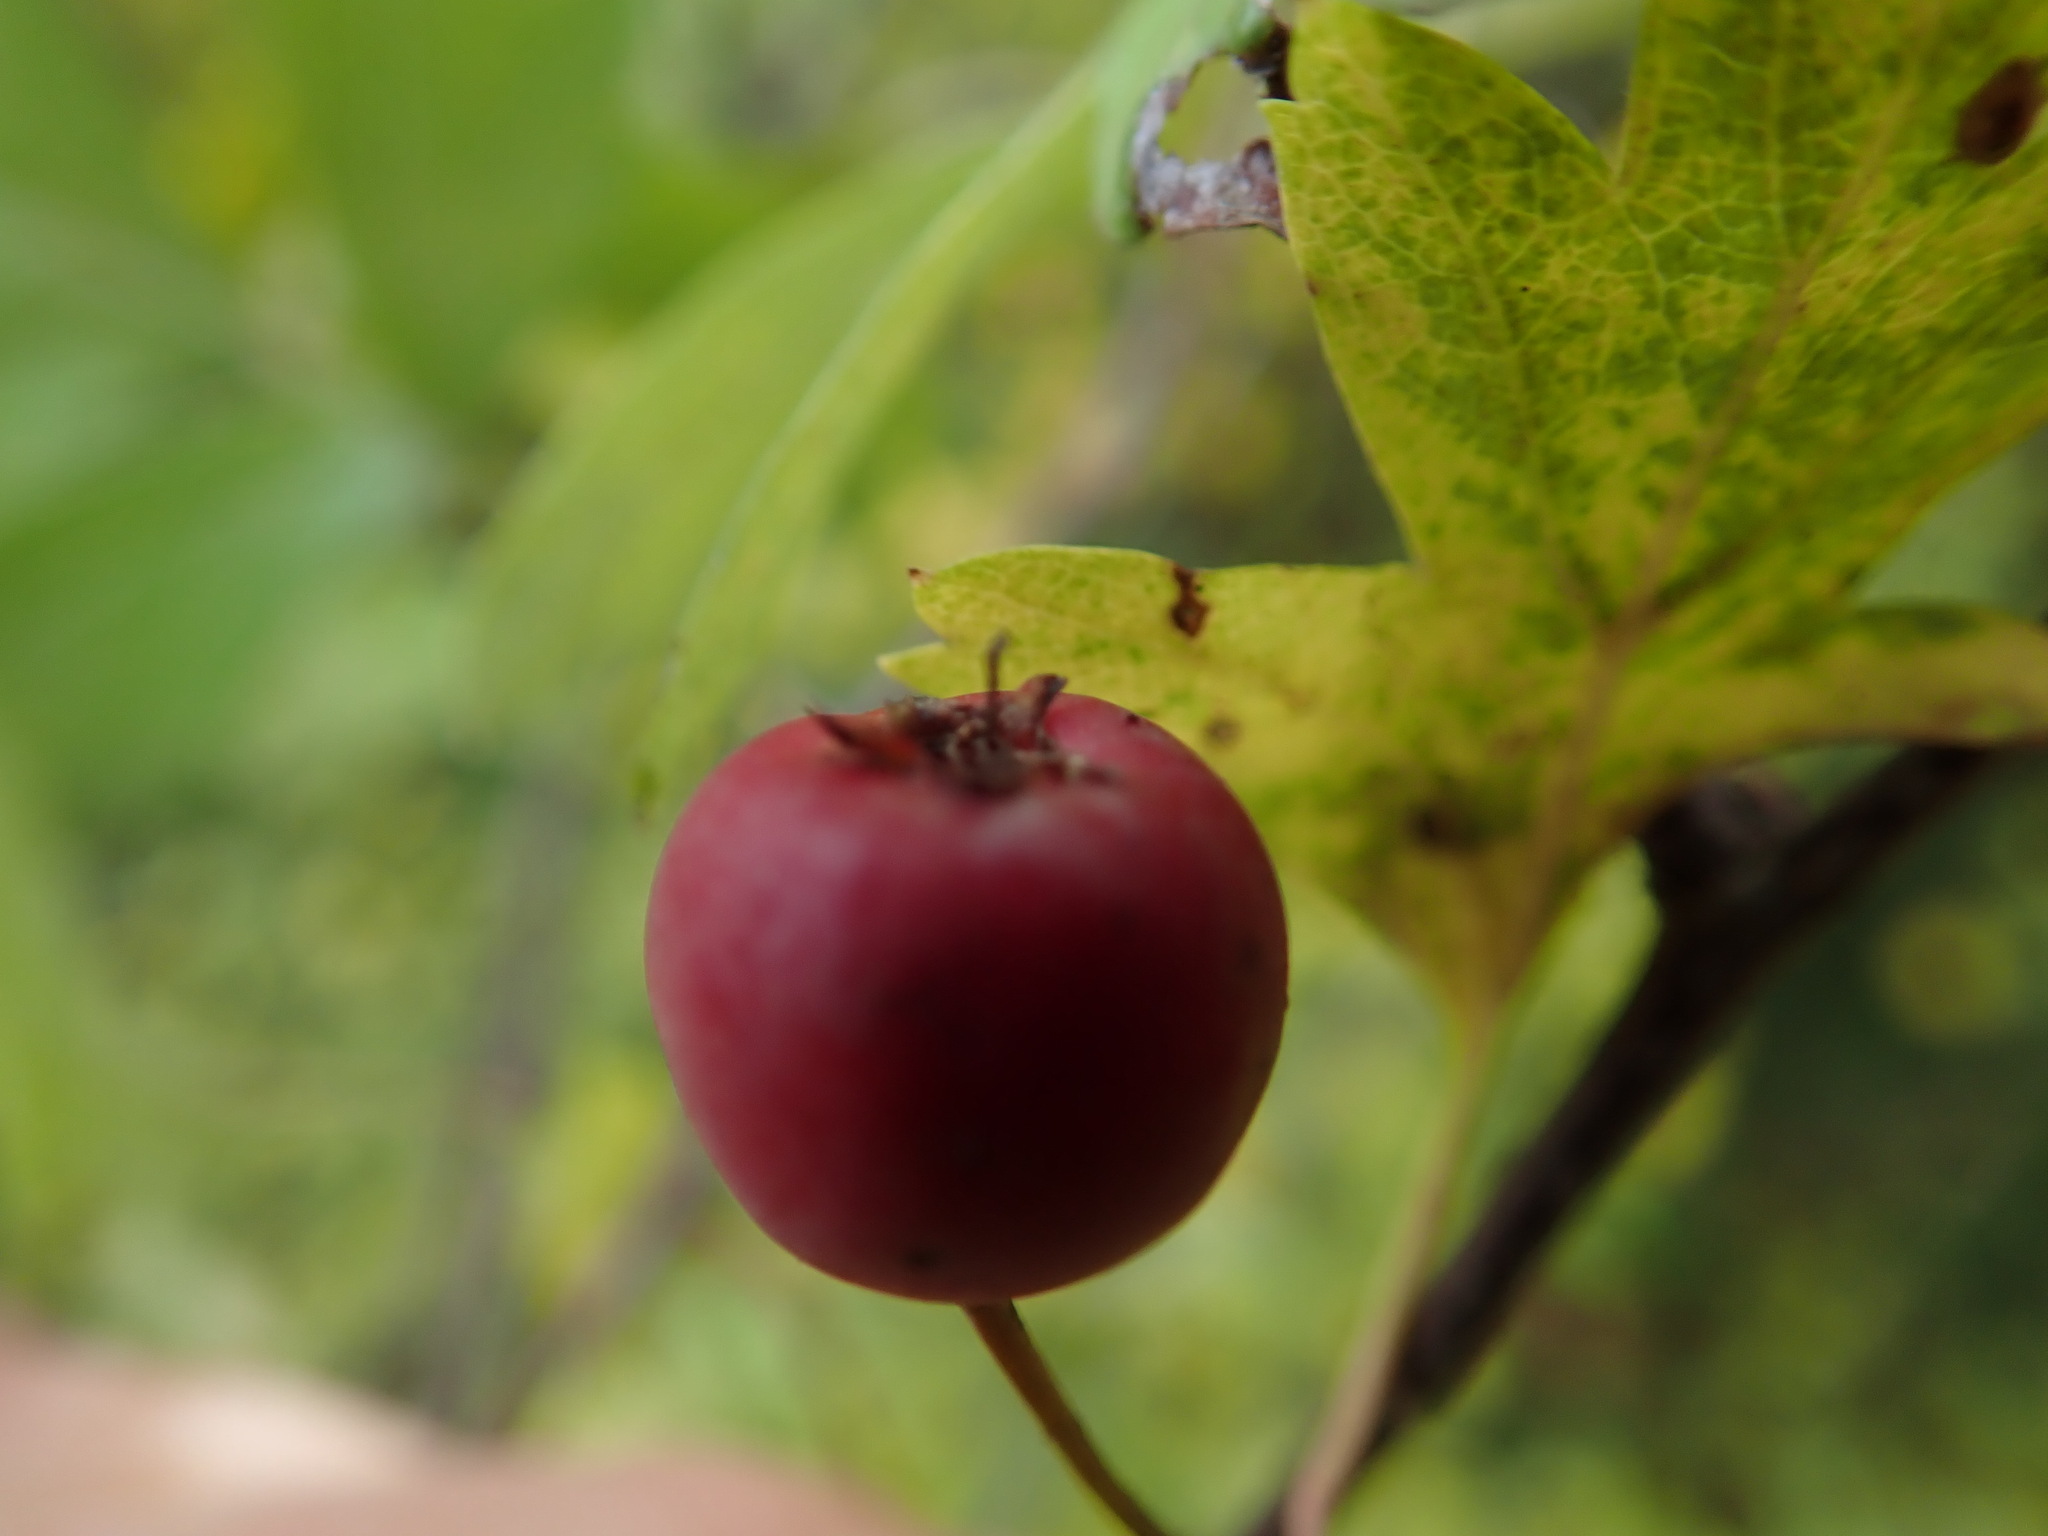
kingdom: Plantae
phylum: Tracheophyta
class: Magnoliopsida
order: Rosales
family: Rosaceae
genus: Crataegus
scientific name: Crataegus monogyna
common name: Hawthorn
